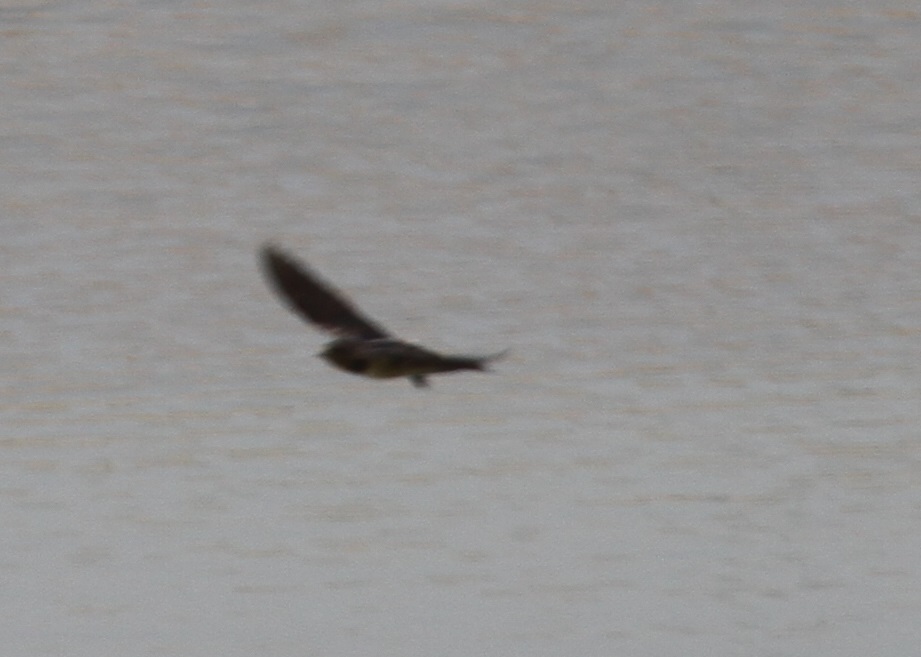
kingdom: Animalia
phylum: Chordata
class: Aves
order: Passeriformes
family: Hirundinidae
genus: Hirundo
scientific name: Hirundo rustica
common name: Barn swallow
